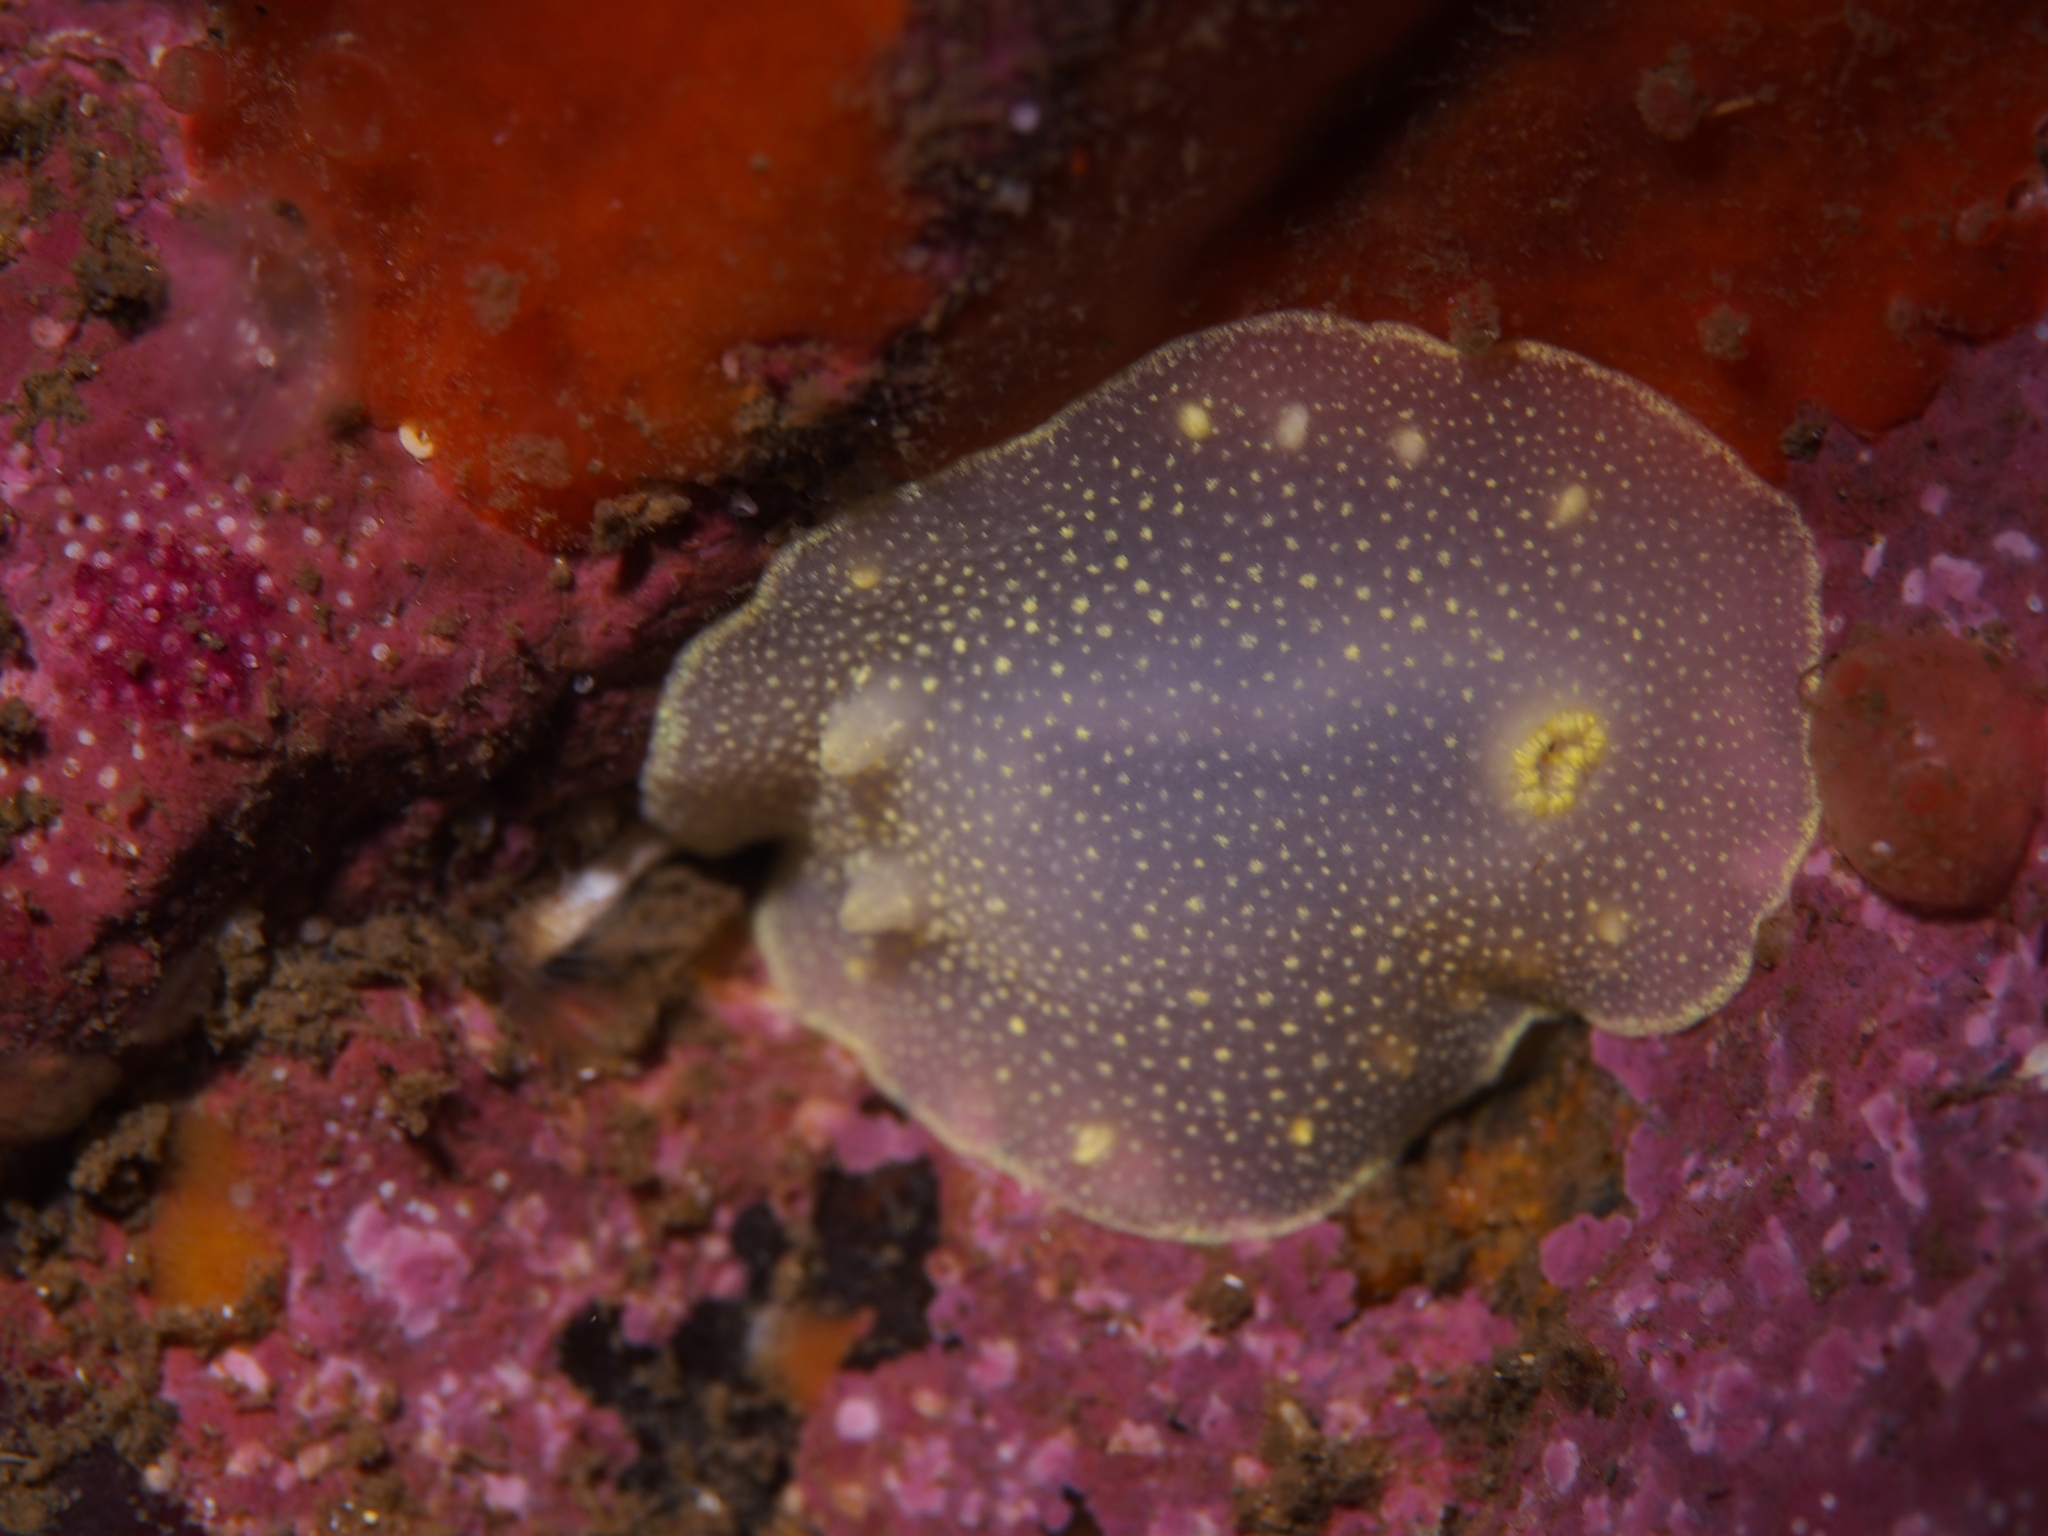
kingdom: Animalia
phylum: Mollusca
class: Gastropoda
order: Nudibranchia
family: Cadlinidae
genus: Cadlina
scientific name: Cadlina laevis
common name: White atlantic cadlina
